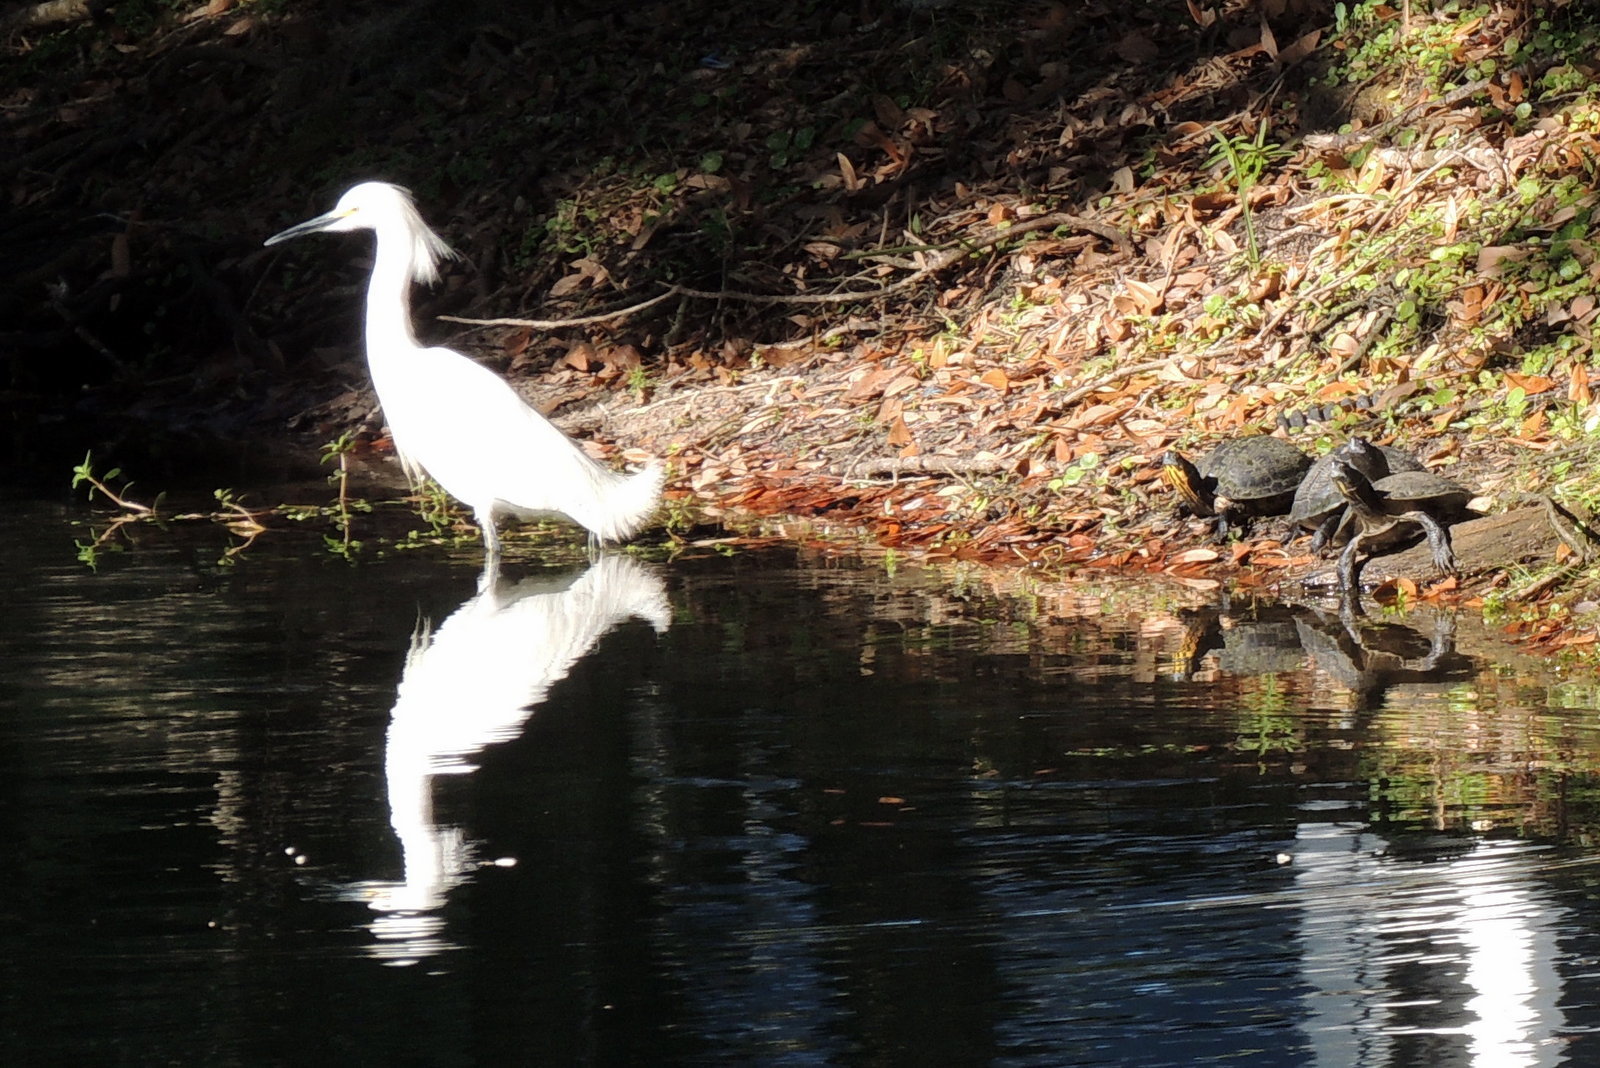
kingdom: Animalia
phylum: Chordata
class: Aves
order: Pelecaniformes
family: Ardeidae
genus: Egretta
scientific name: Egretta thula
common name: Snowy egret
